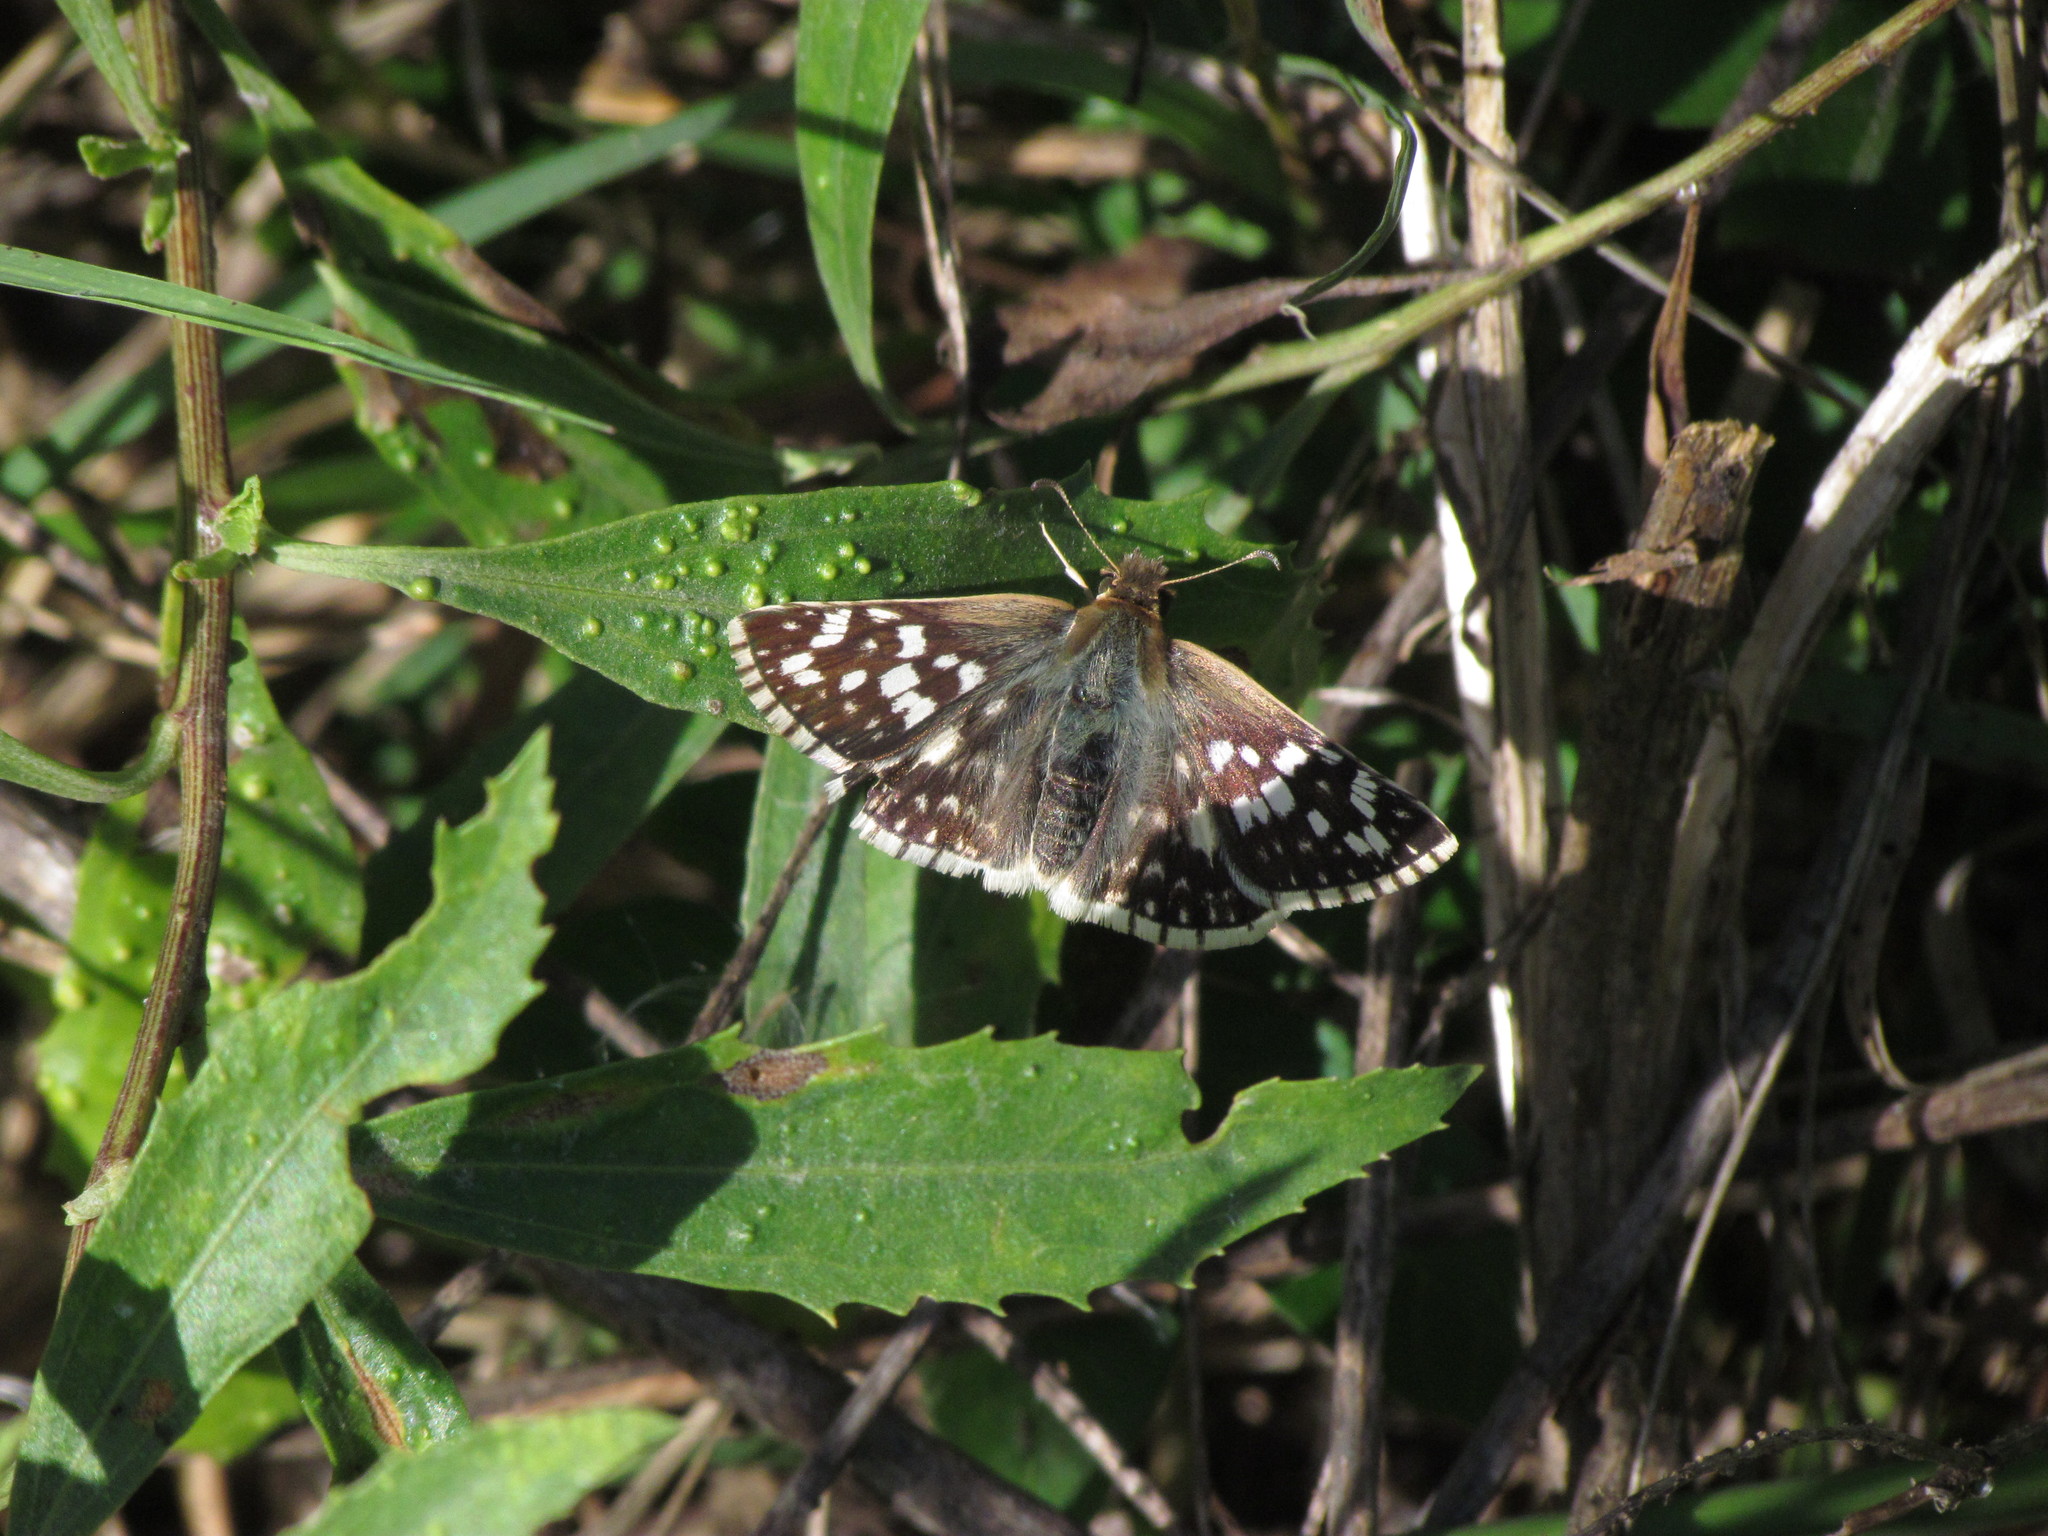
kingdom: Animalia
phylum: Arthropoda
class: Insecta
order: Lepidoptera
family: Hesperiidae
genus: Heliopetes
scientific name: Heliopetes americanus
